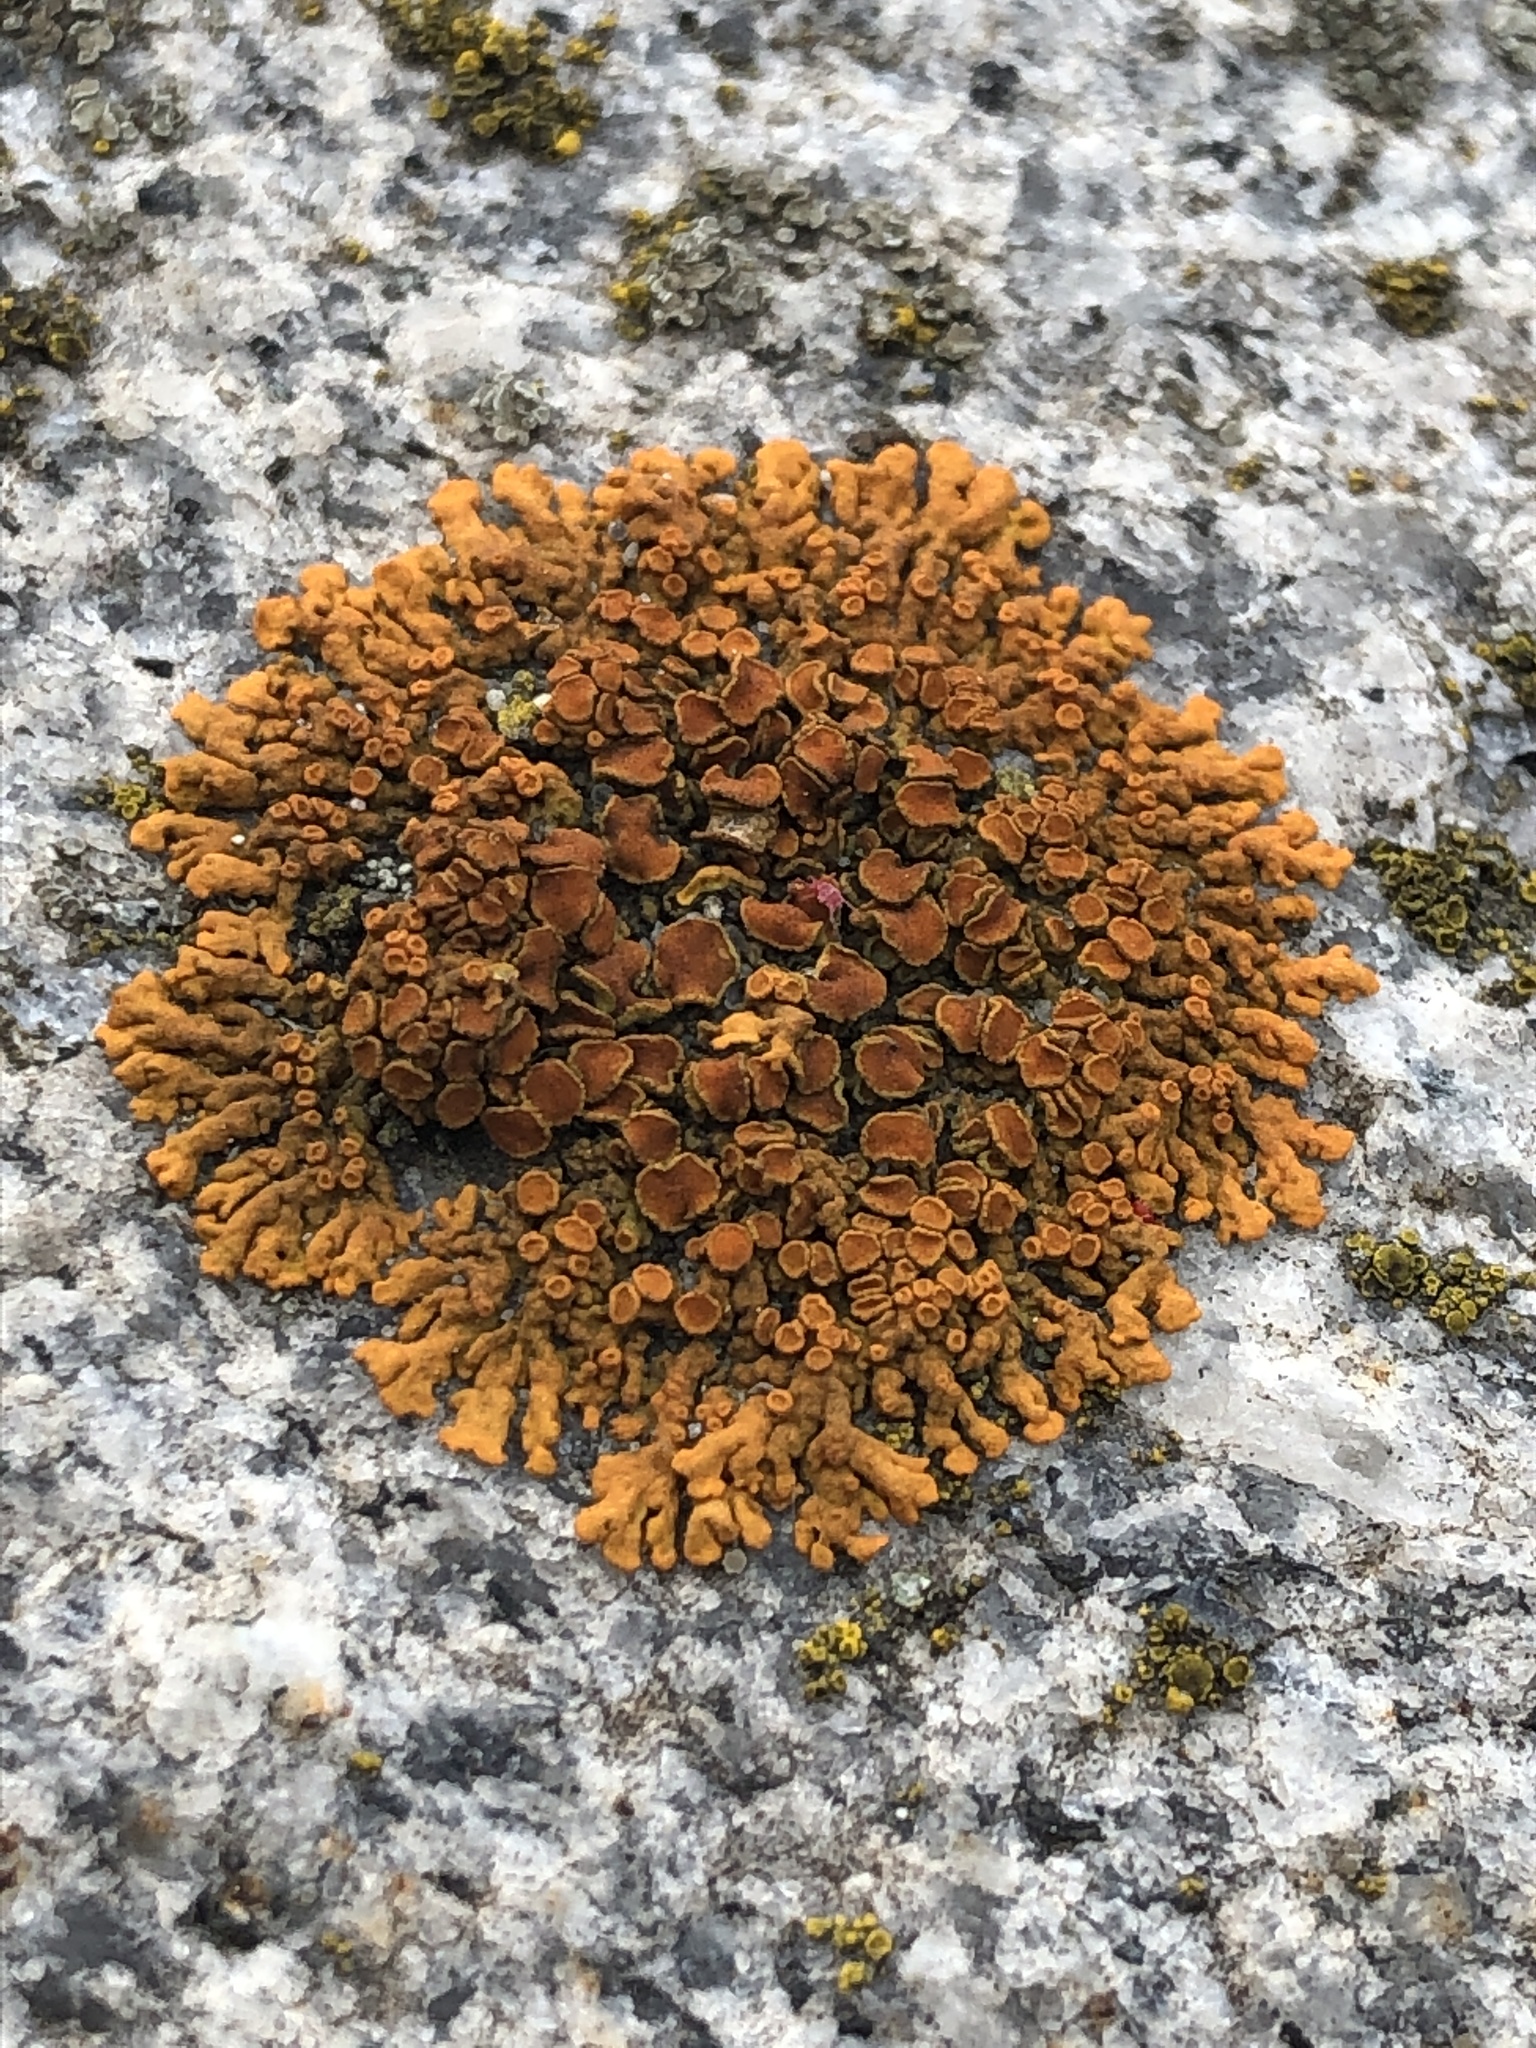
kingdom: Fungi
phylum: Ascomycota
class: Lecanoromycetes
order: Teloschistales
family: Teloschistaceae
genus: Xanthoria
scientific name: Xanthoria elegans
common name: Elegant sunburst lichen
